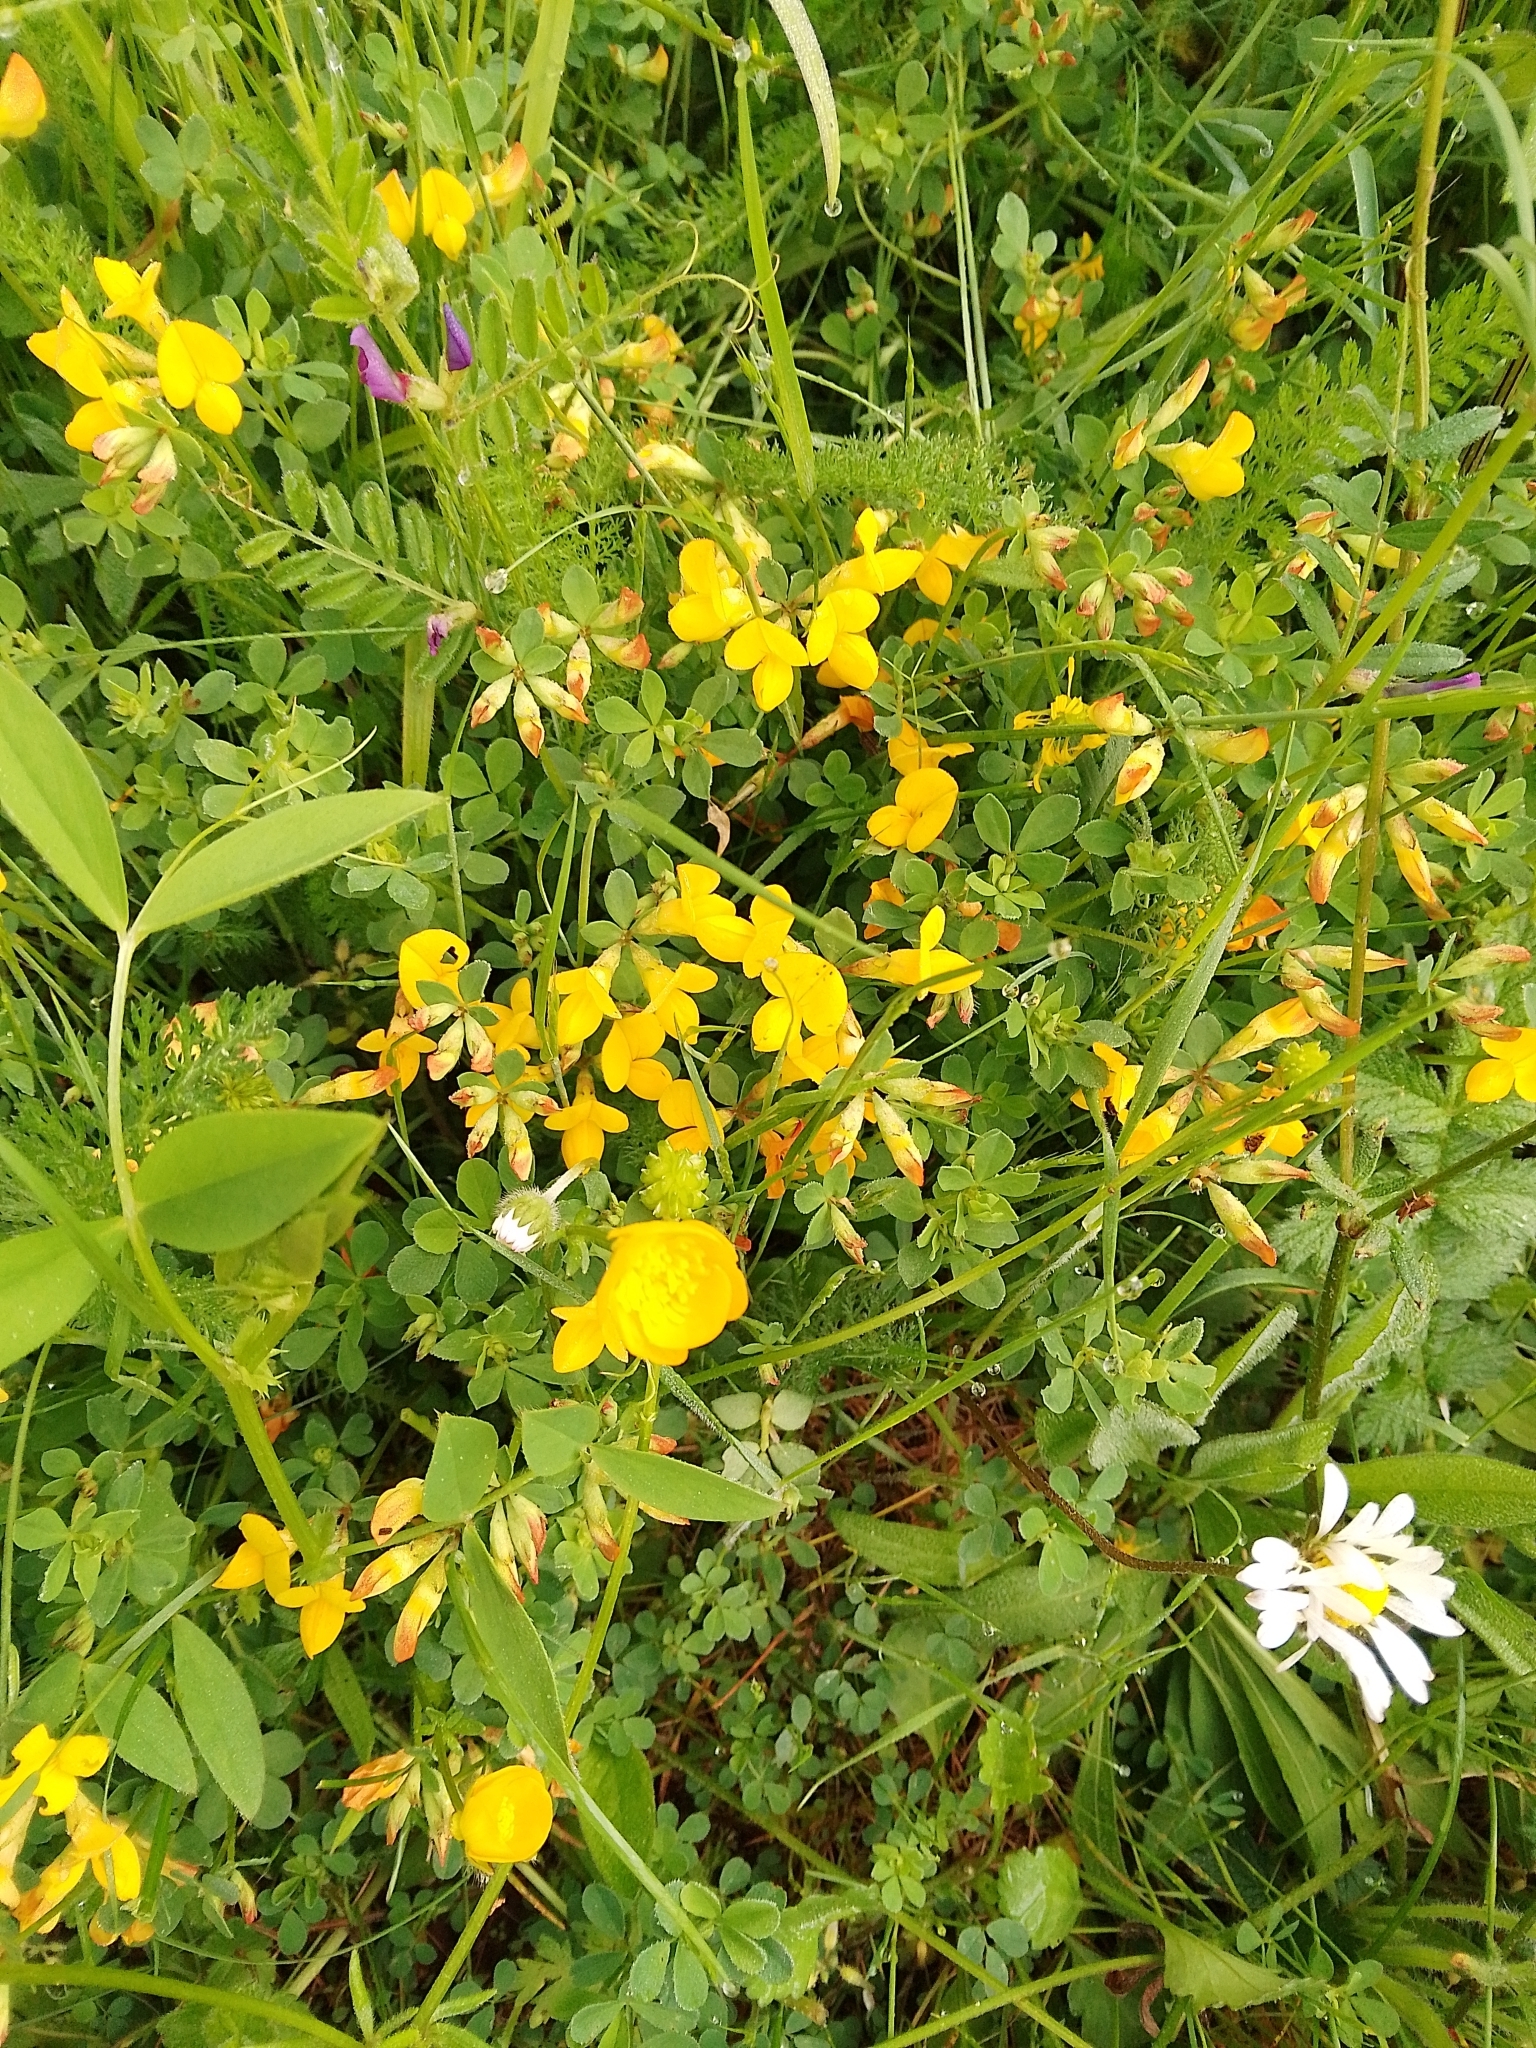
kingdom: Plantae
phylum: Tracheophyta
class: Magnoliopsida
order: Fabales
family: Fabaceae
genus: Lotus
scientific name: Lotus corniculatus
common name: Common bird's-foot-trefoil
